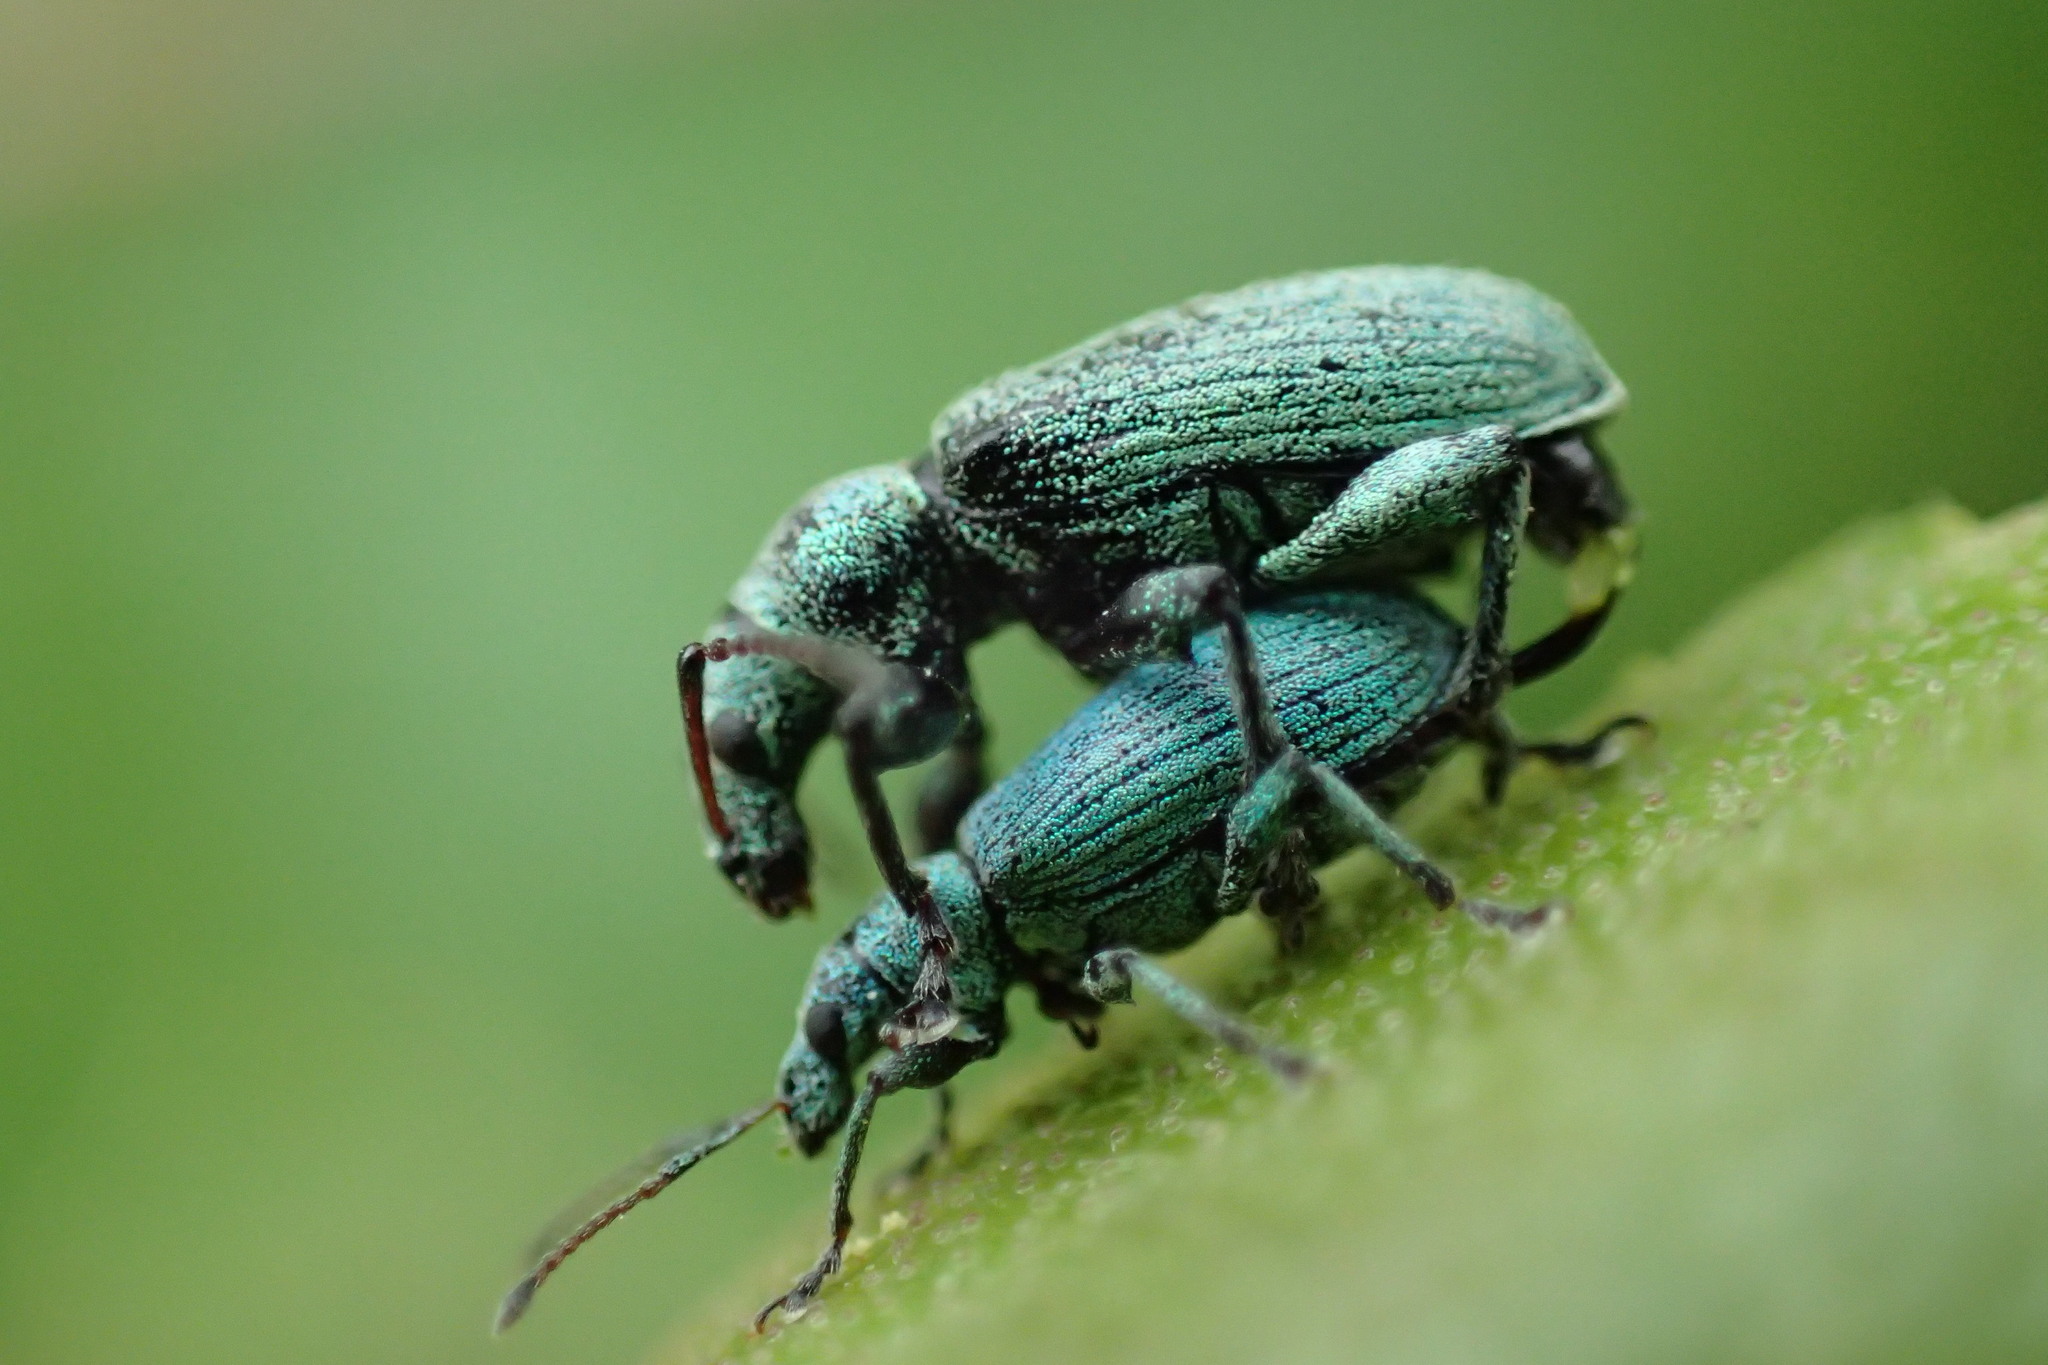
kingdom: Animalia
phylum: Arthropoda
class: Insecta
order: Coleoptera
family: Curculionidae
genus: Phyllobius
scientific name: Phyllobius maculicornis
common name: Green leaf weevil
